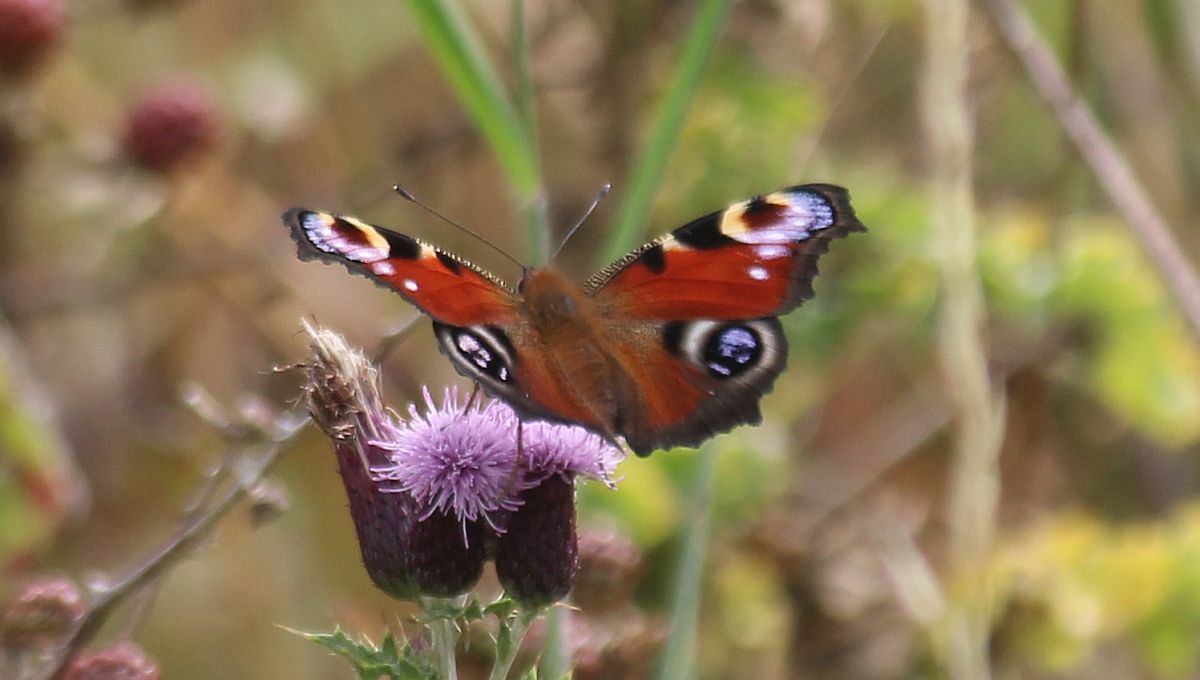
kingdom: Animalia
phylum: Arthropoda
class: Insecta
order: Lepidoptera
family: Nymphalidae
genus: Aglais
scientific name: Aglais io
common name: Peacock
